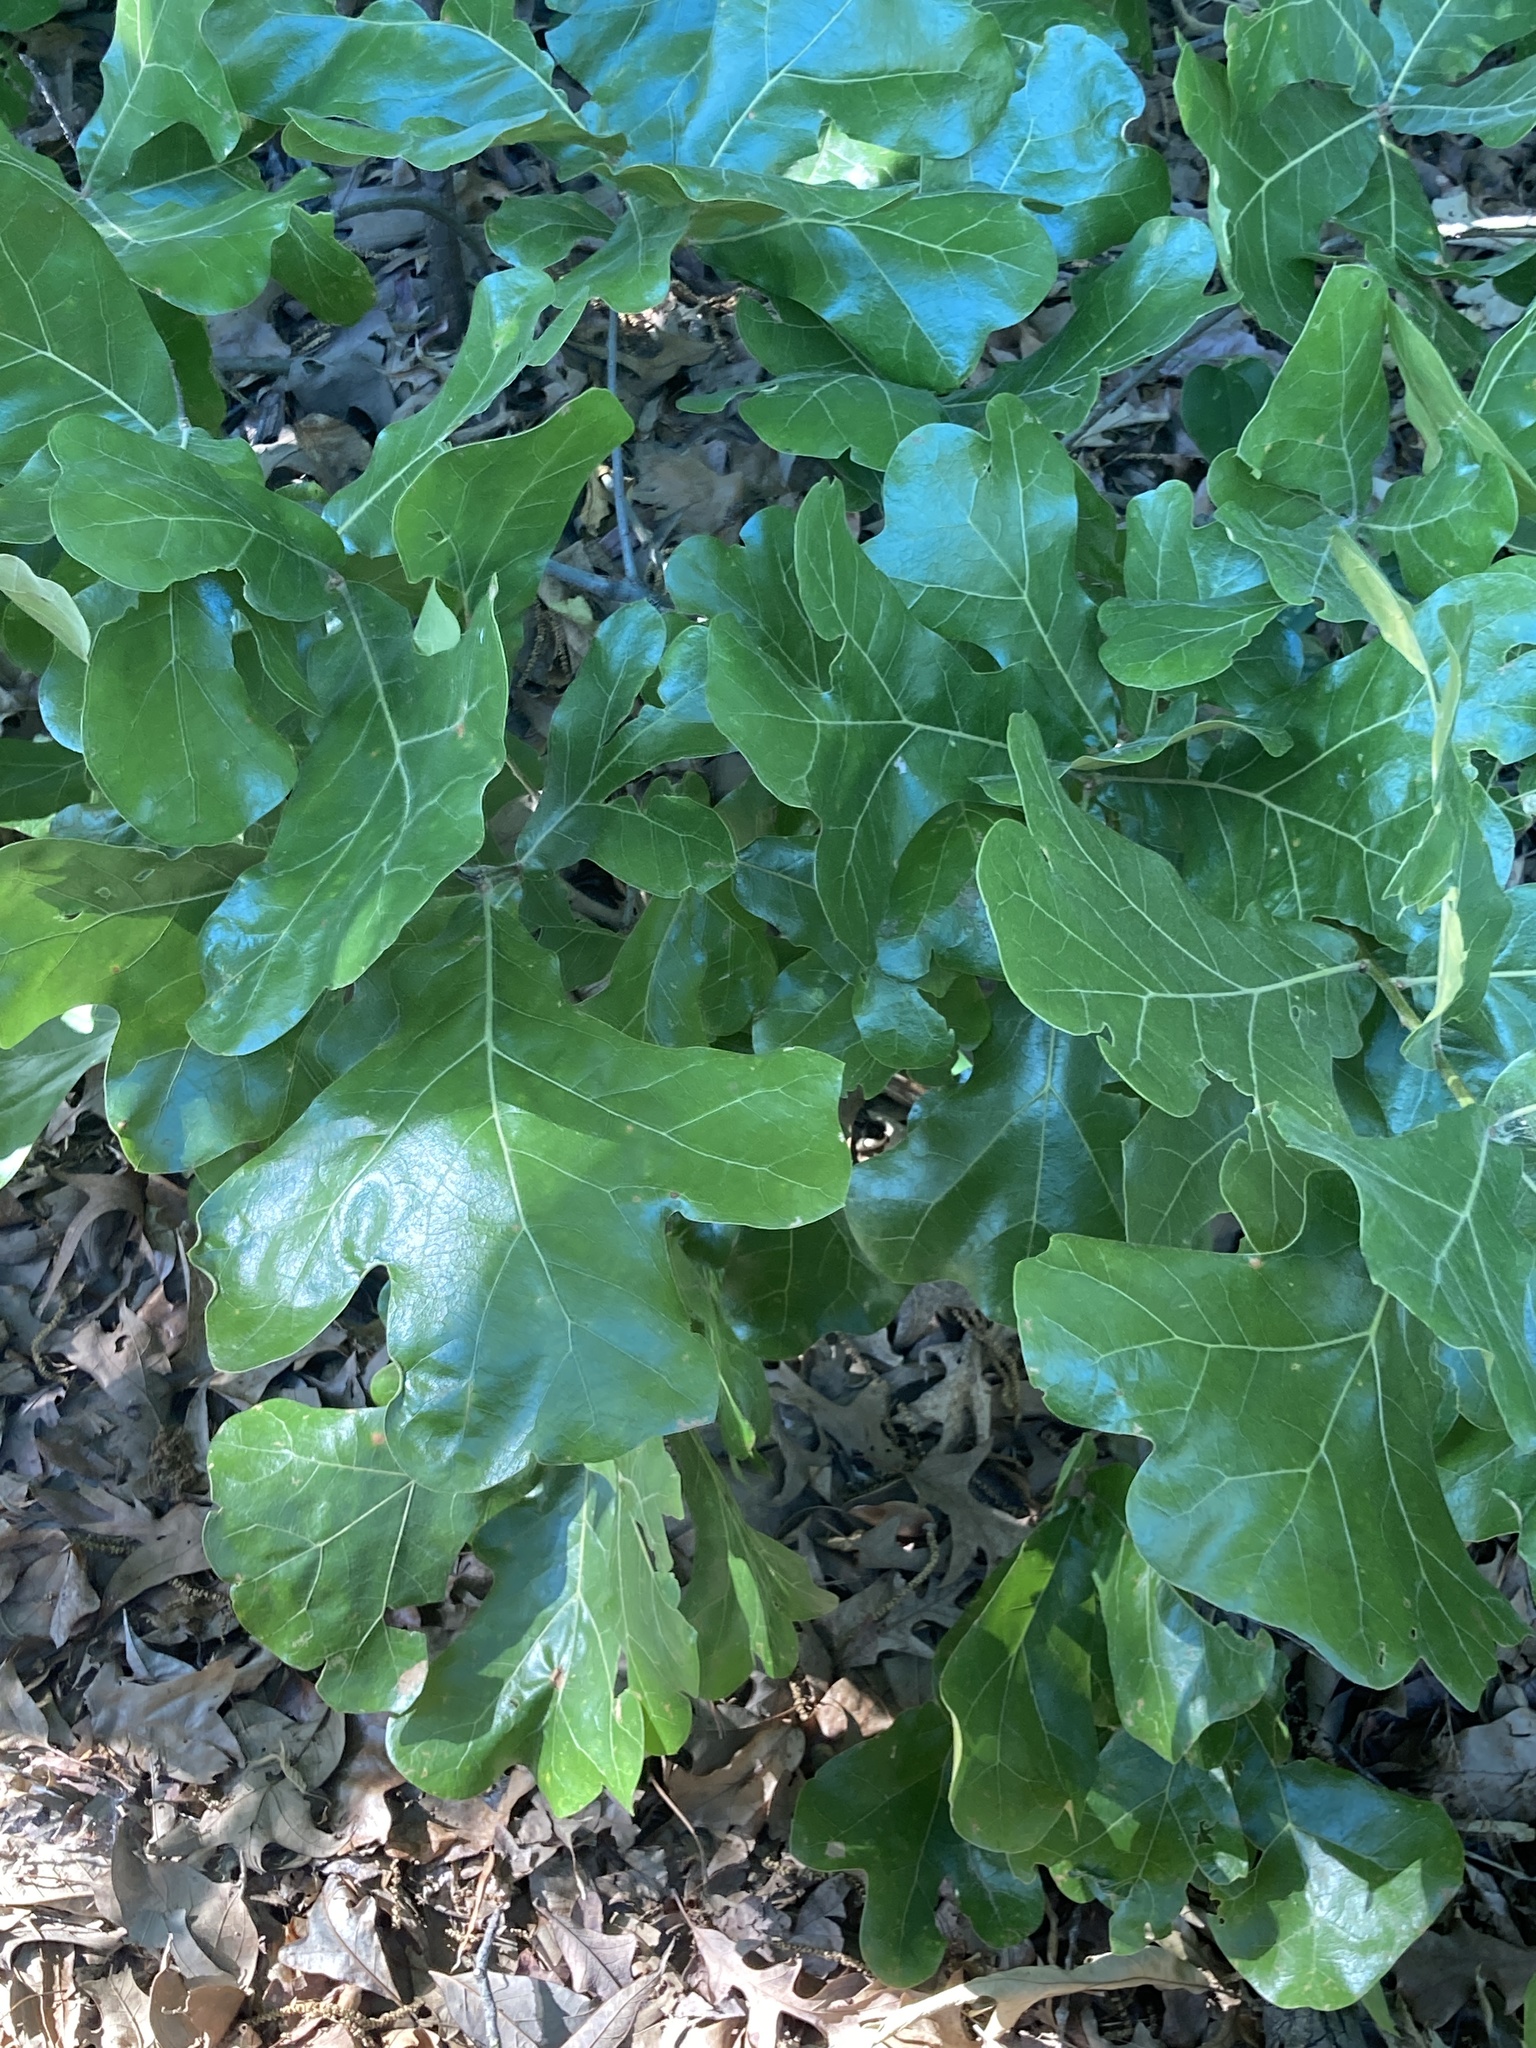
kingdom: Plantae
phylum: Tracheophyta
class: Magnoliopsida
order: Fagales
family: Fagaceae
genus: Quercus
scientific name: Quercus stellata
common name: Post oak
